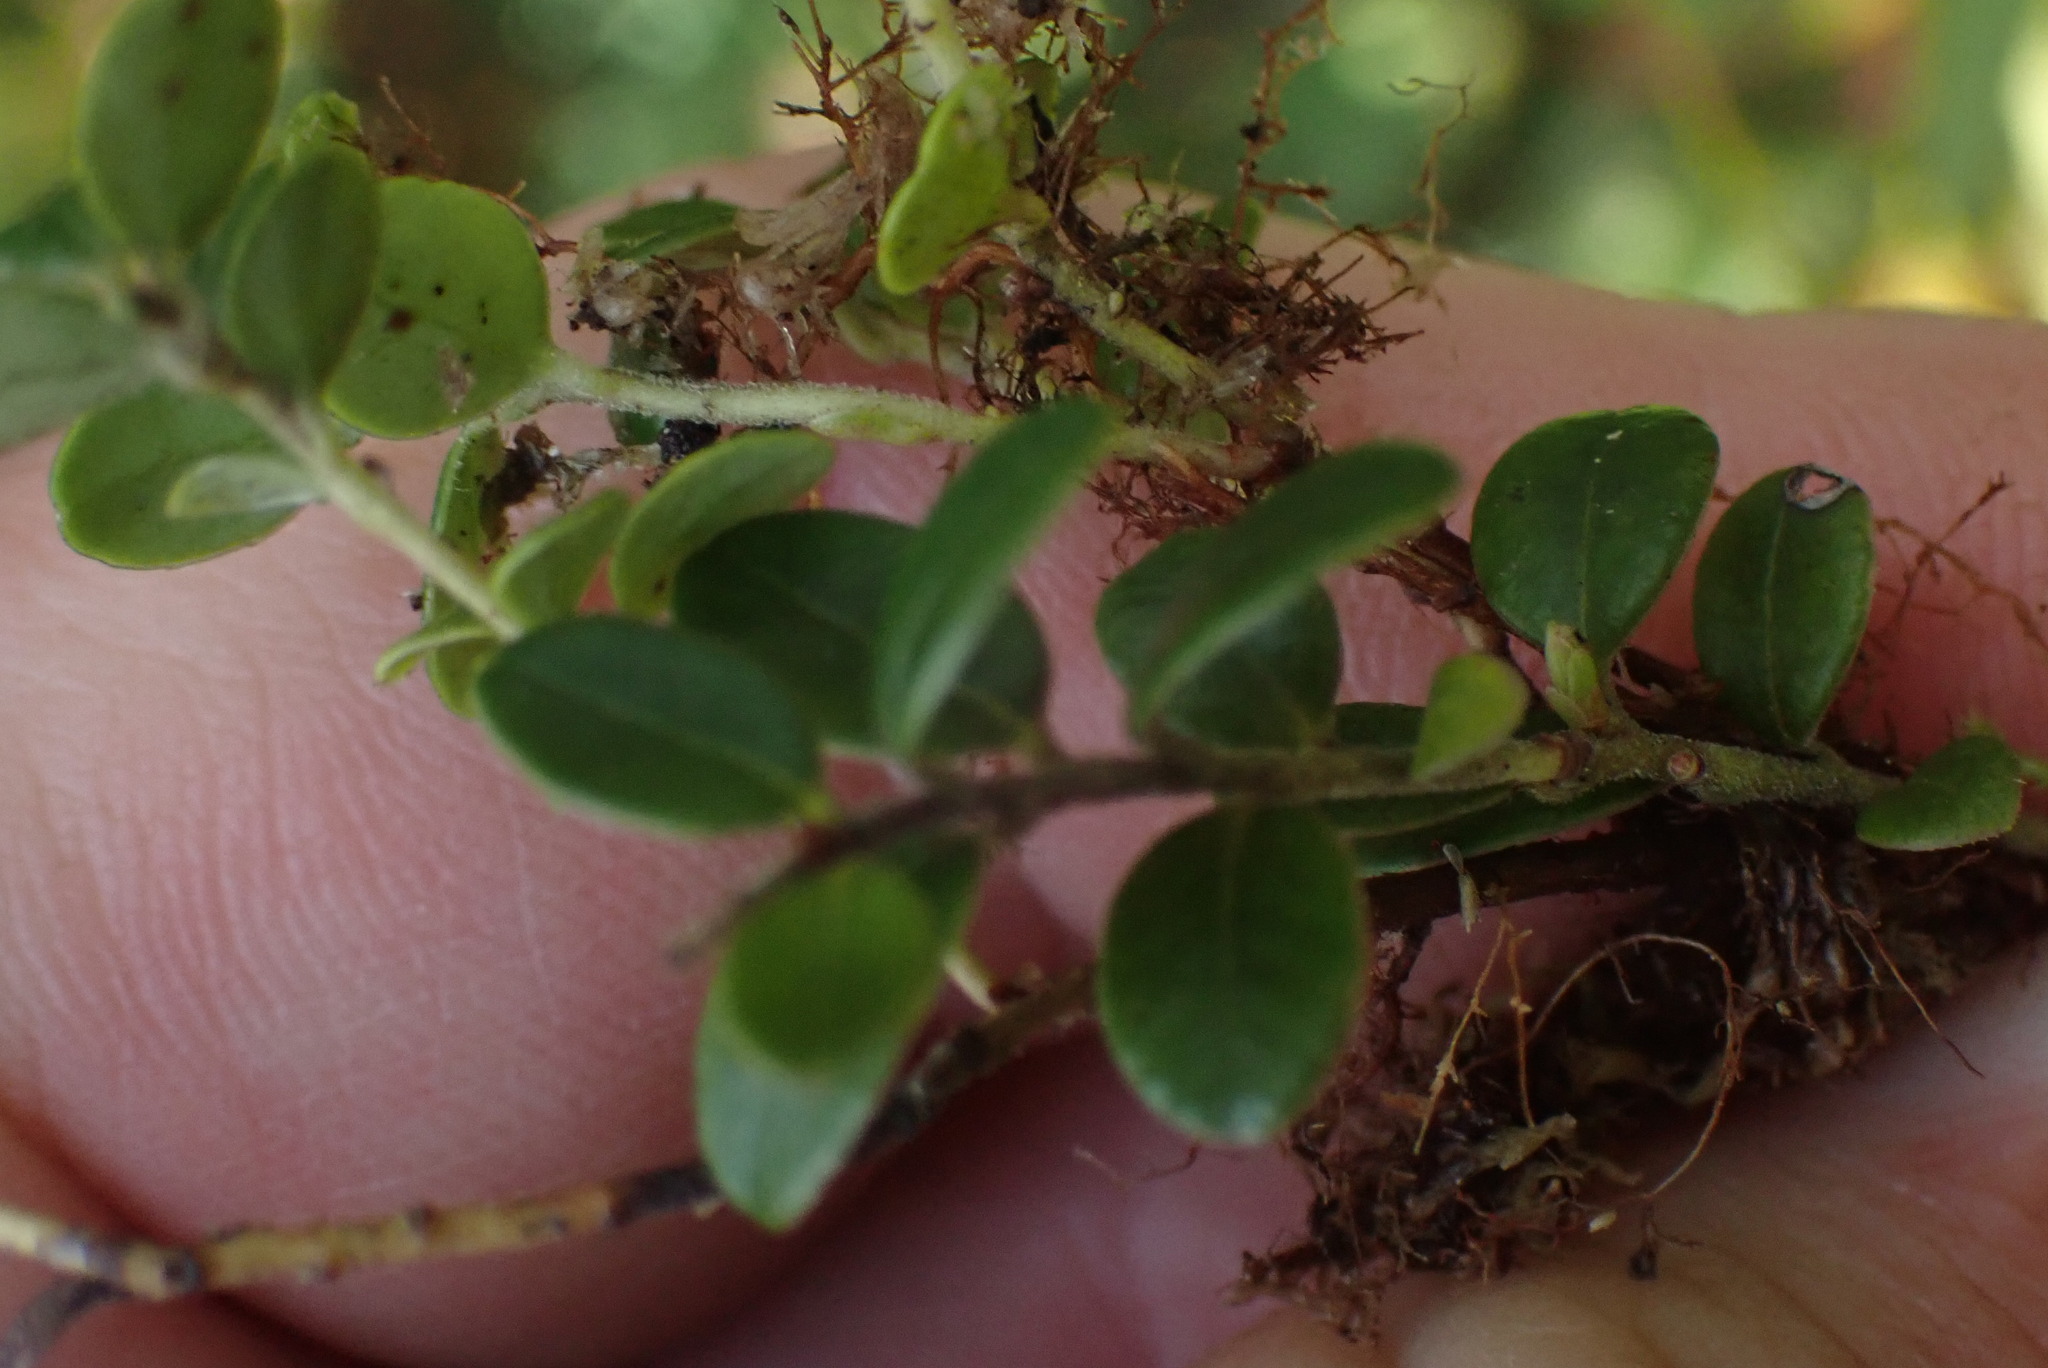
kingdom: Plantae
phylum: Tracheophyta
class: Magnoliopsida
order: Ericales
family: Ericaceae
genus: Vaccinium
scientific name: Vaccinium vitis-idaea
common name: Cowberry
